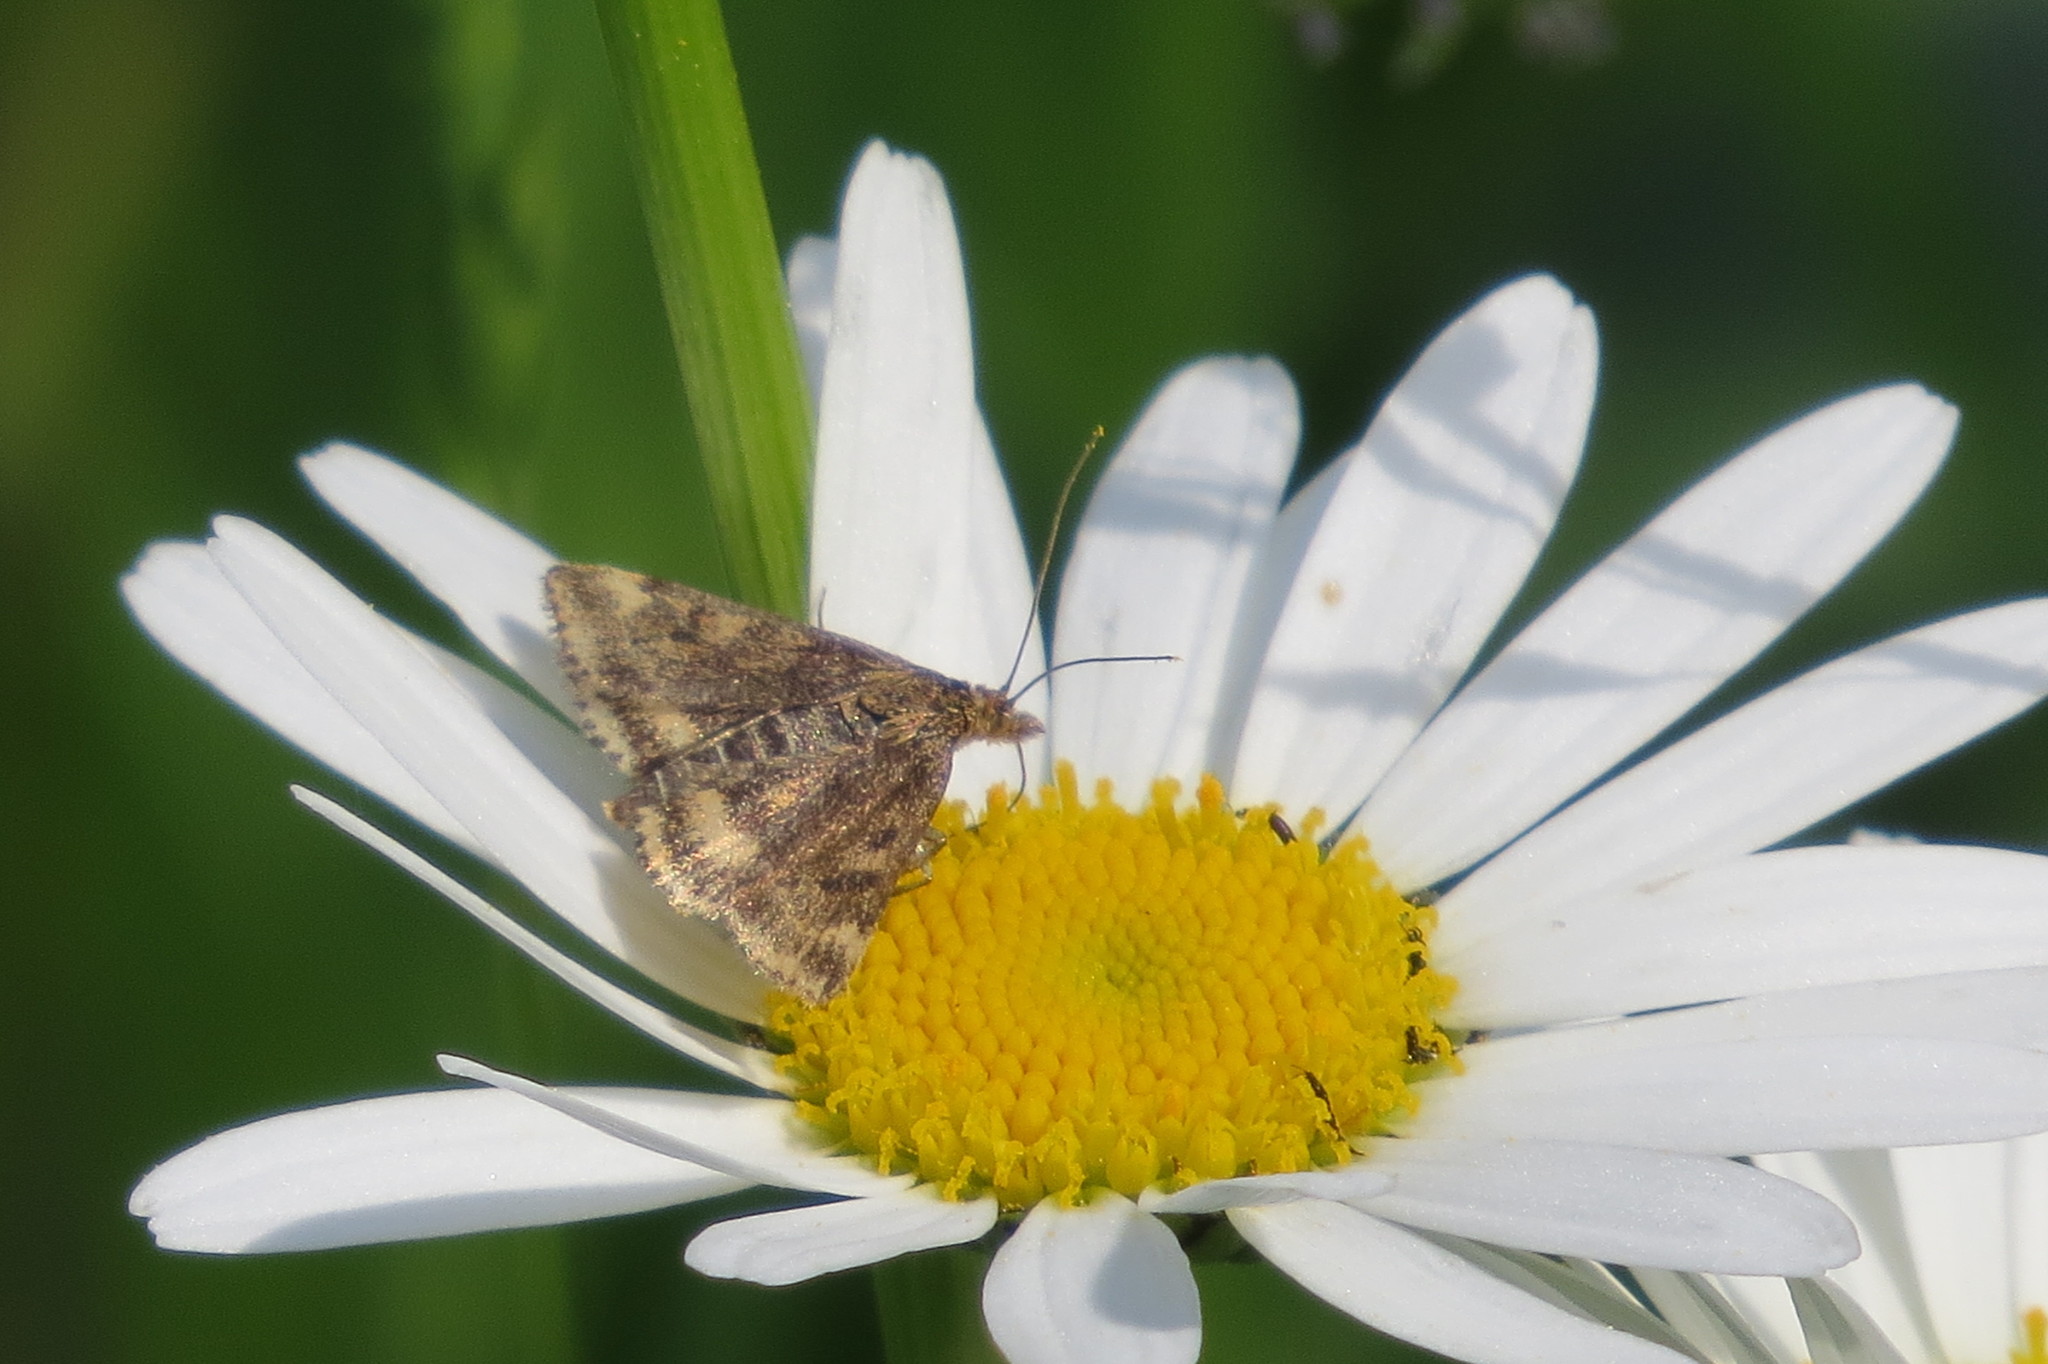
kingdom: Animalia
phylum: Arthropoda
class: Insecta
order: Lepidoptera
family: Crambidae
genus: Pyrausta
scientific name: Pyrausta despicata
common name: Straw-barred pearl
